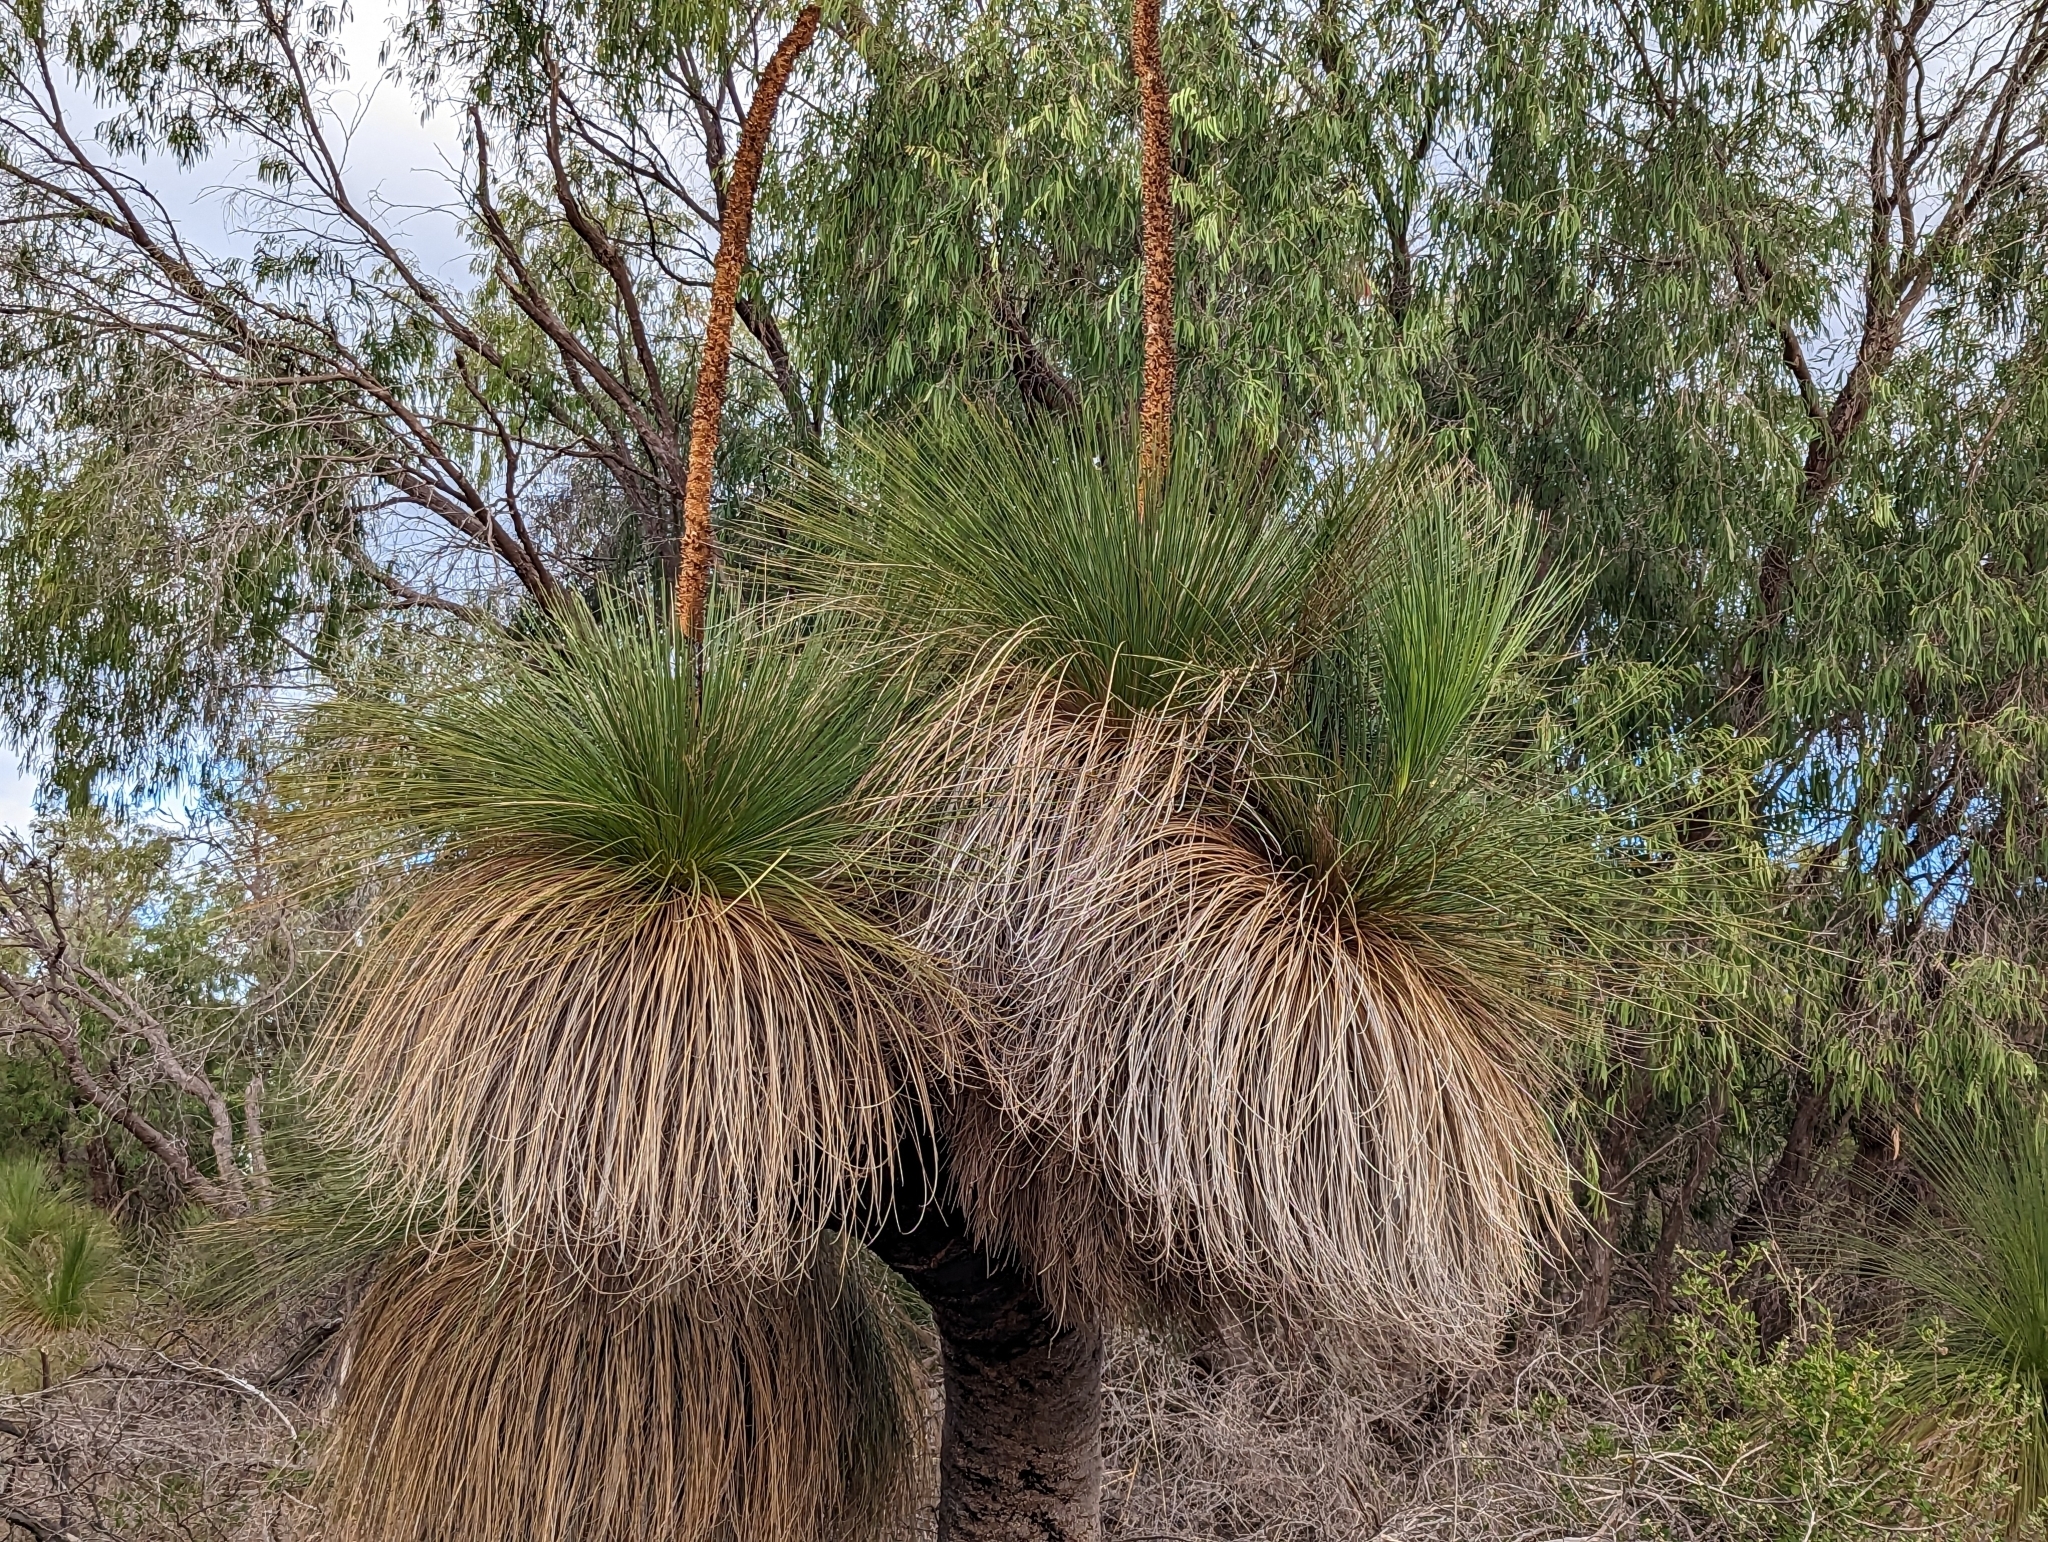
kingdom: Plantae
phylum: Tracheophyta
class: Liliopsida
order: Asparagales
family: Asphodelaceae
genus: Xanthorrhoea
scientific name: Xanthorrhoea preissii
